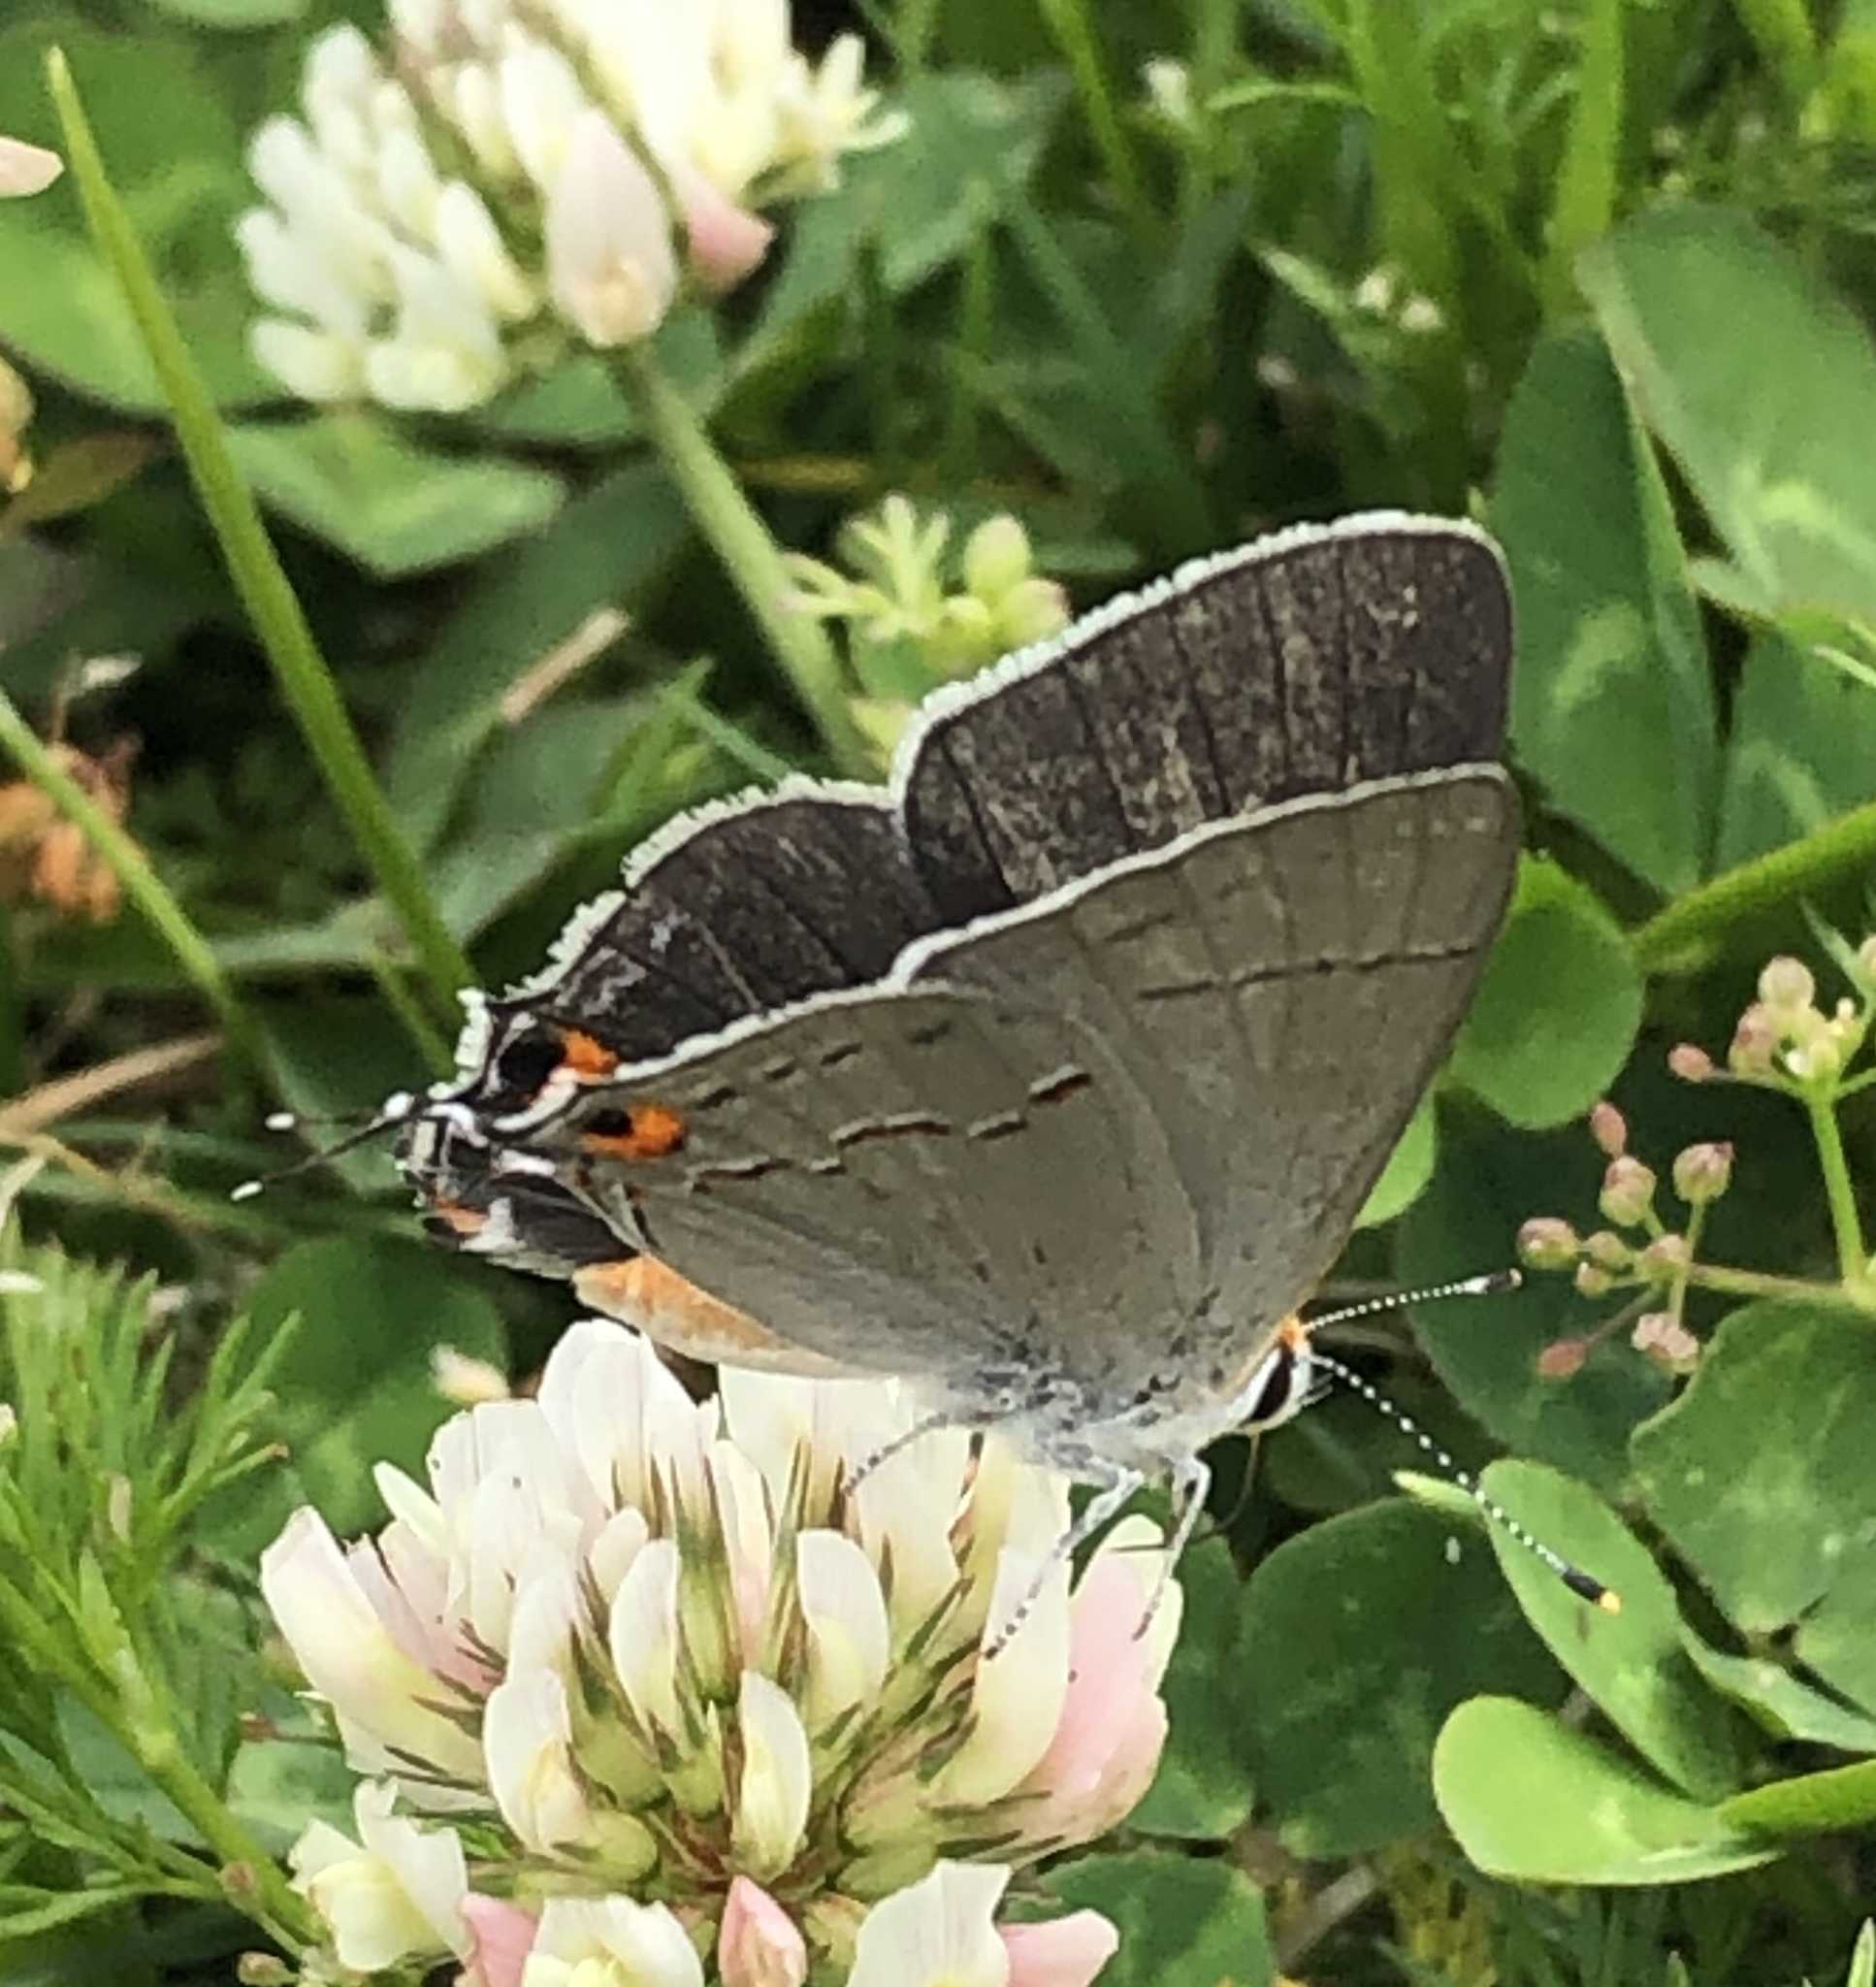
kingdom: Animalia
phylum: Arthropoda
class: Insecta
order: Lepidoptera
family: Lycaenidae
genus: Strymon
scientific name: Strymon melinus
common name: Gray hairstreak
